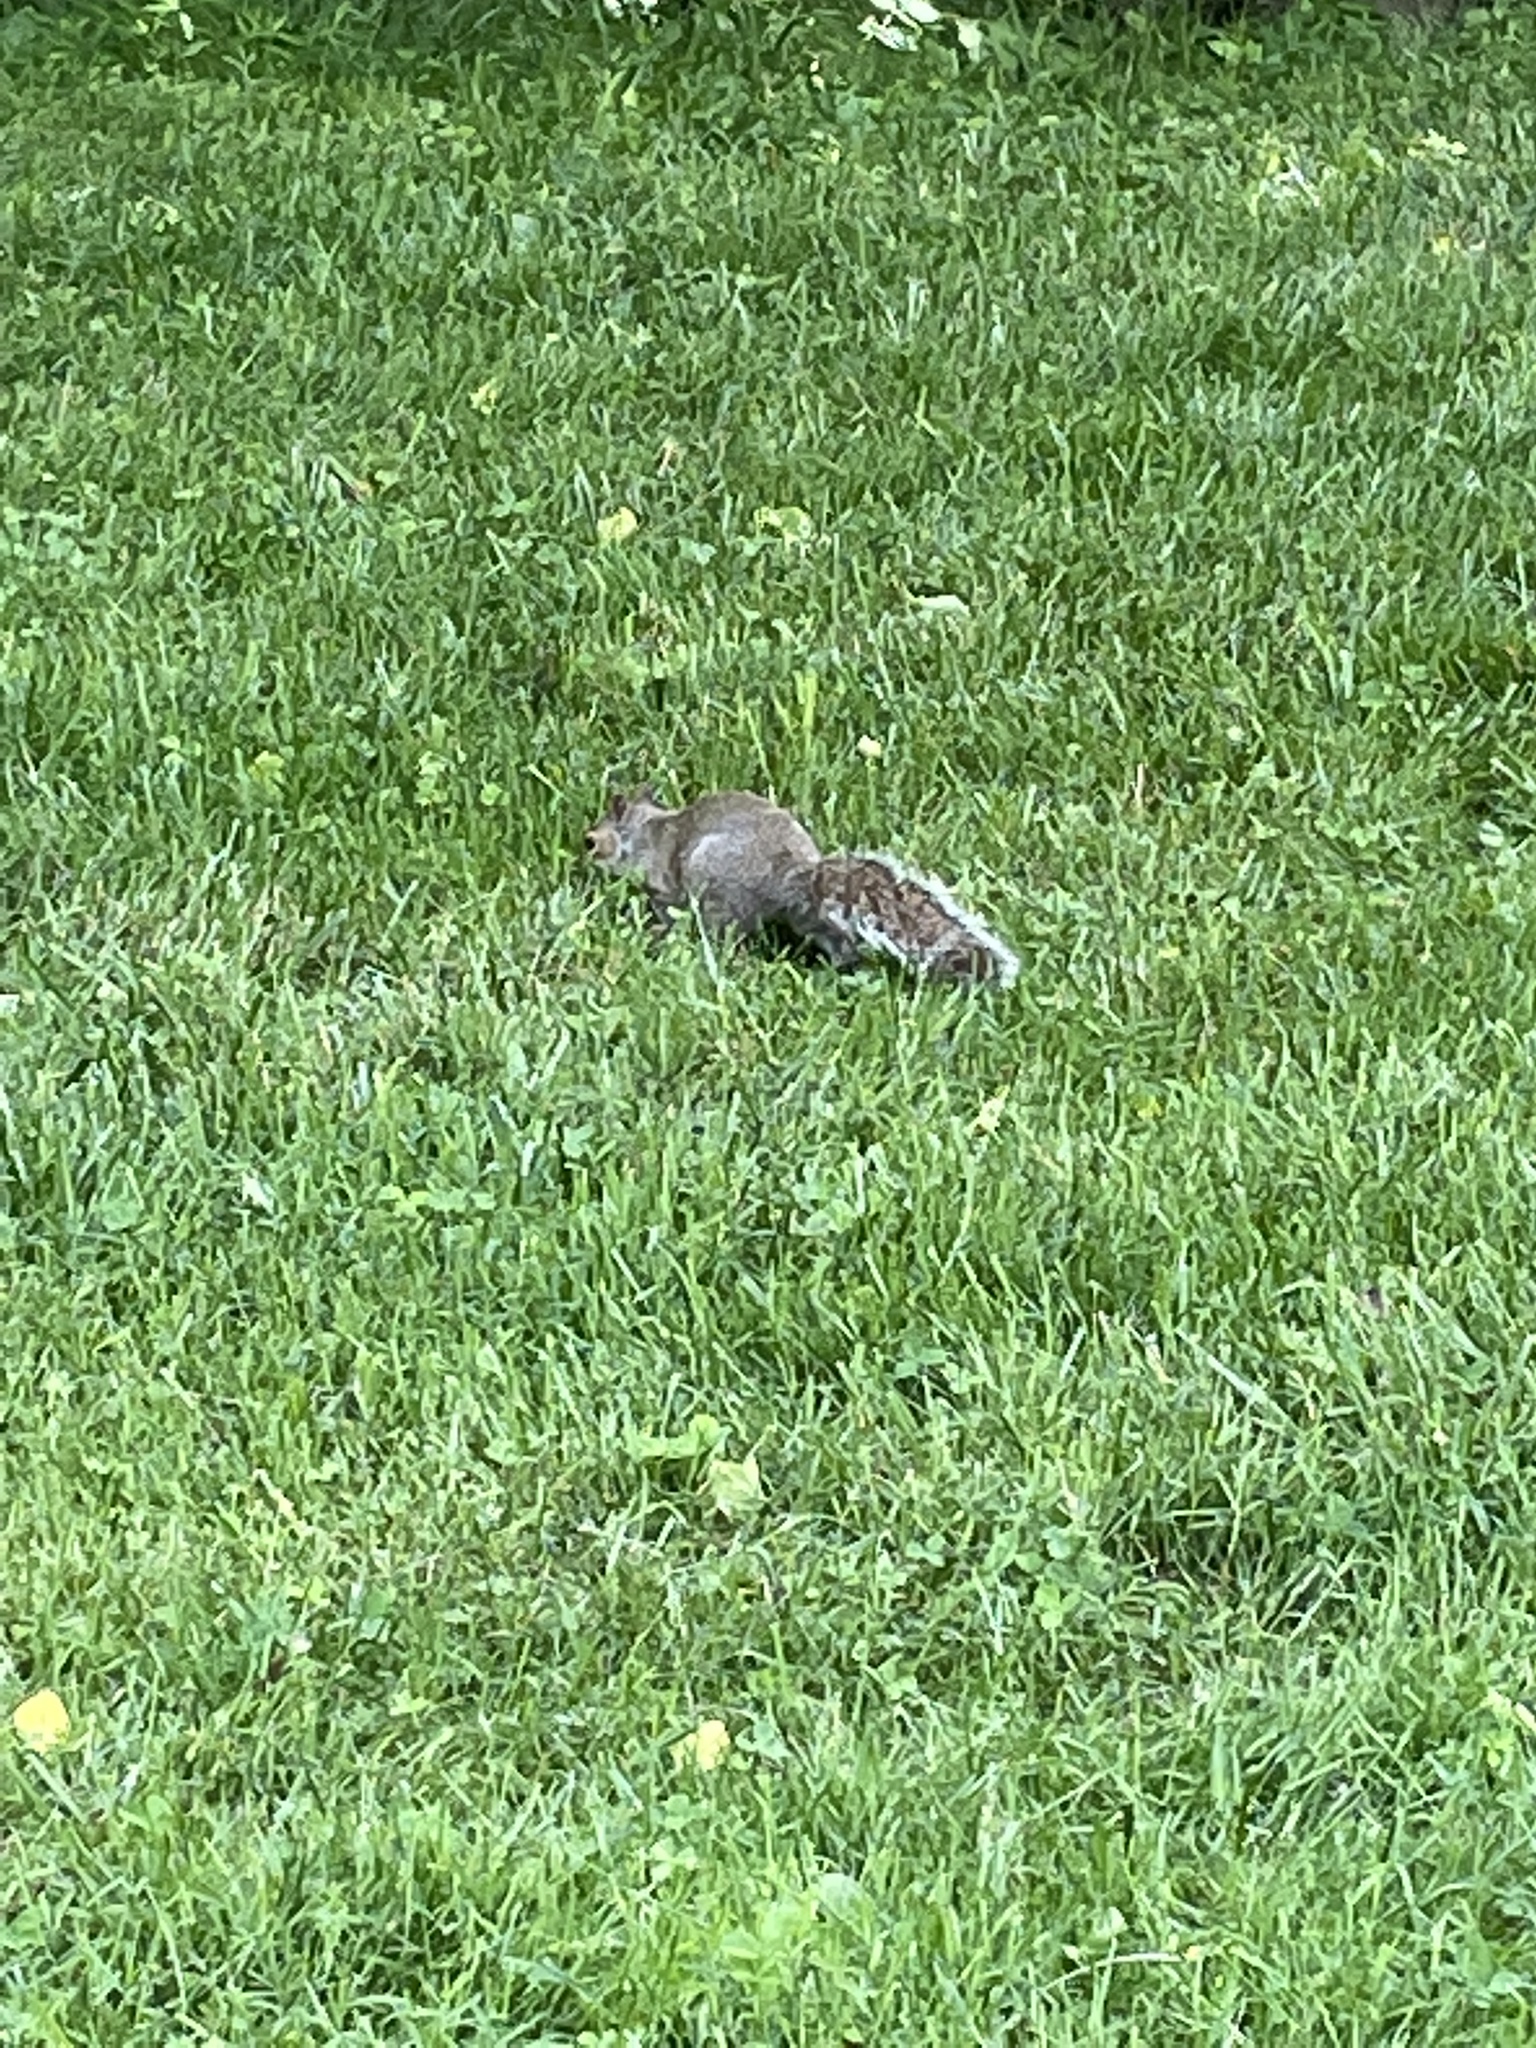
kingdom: Animalia
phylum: Chordata
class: Mammalia
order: Rodentia
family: Sciuridae
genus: Sciurus
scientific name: Sciurus carolinensis
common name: Eastern gray squirrel
